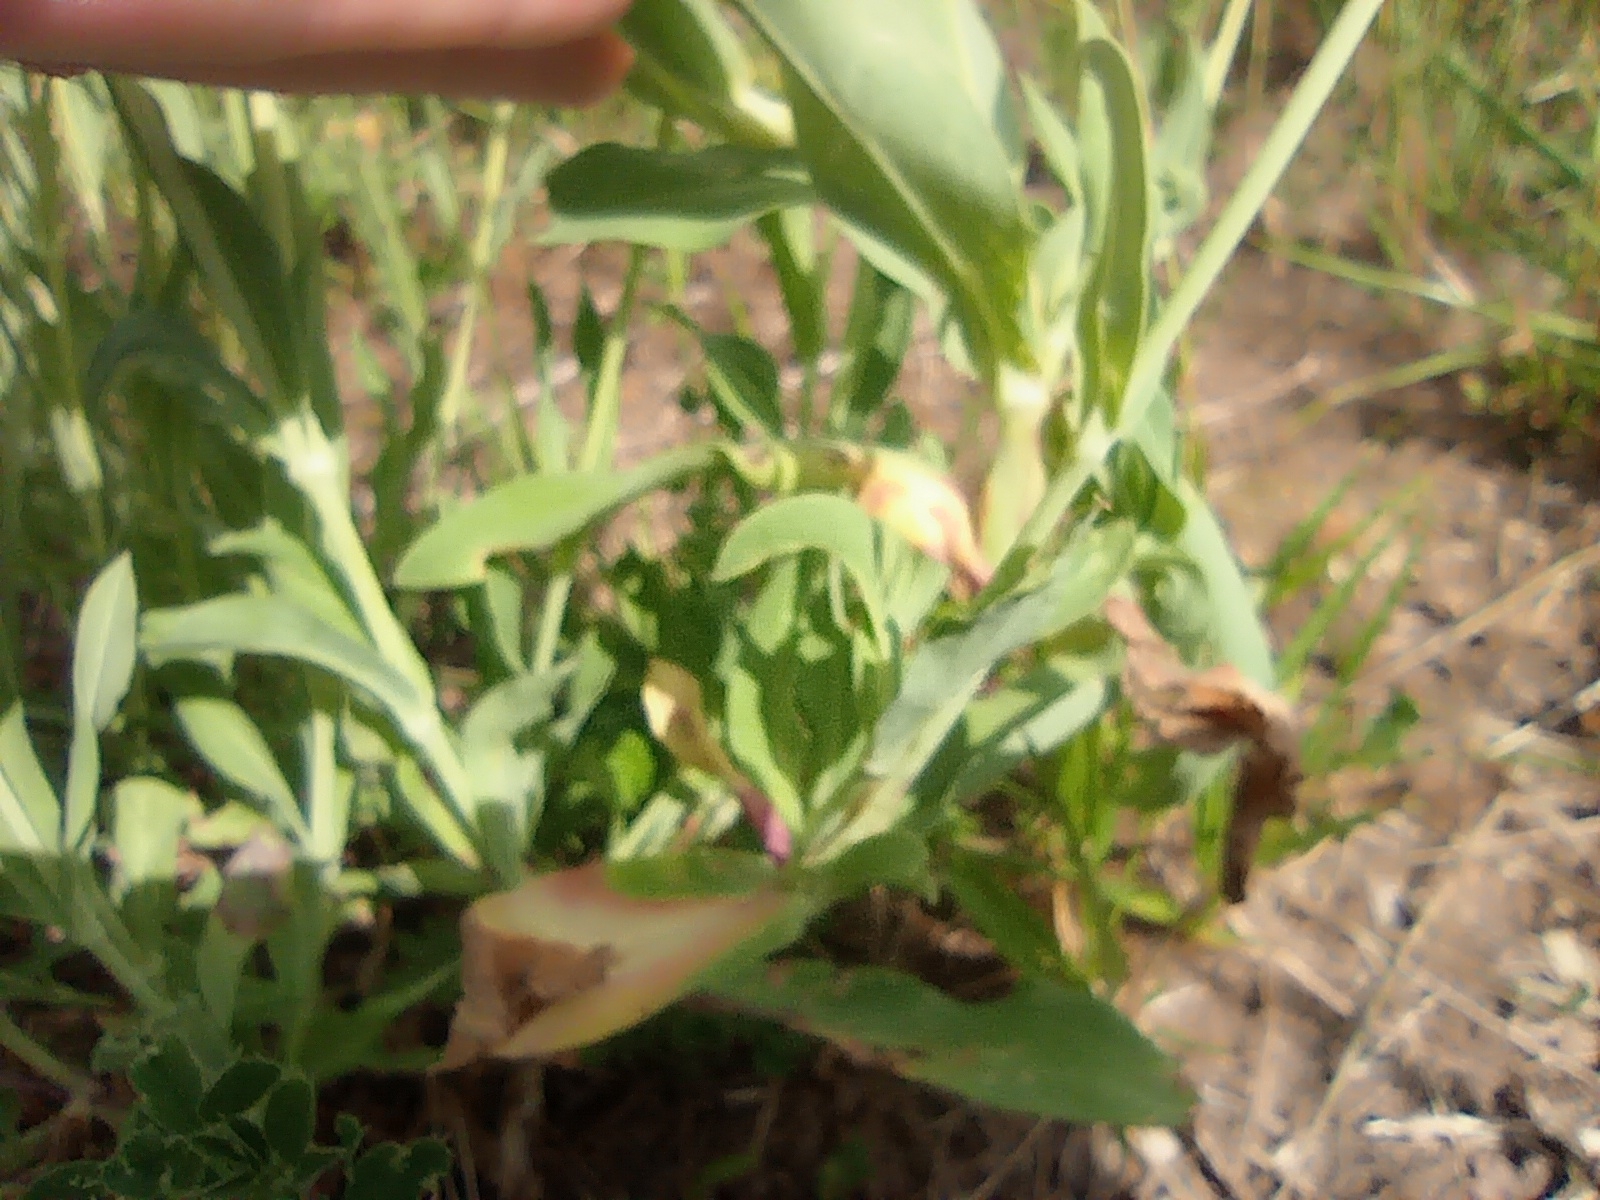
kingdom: Plantae
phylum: Tracheophyta
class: Magnoliopsida
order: Caryophyllales
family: Caryophyllaceae
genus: Silene
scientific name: Silene vulgaris
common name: Bladder campion
